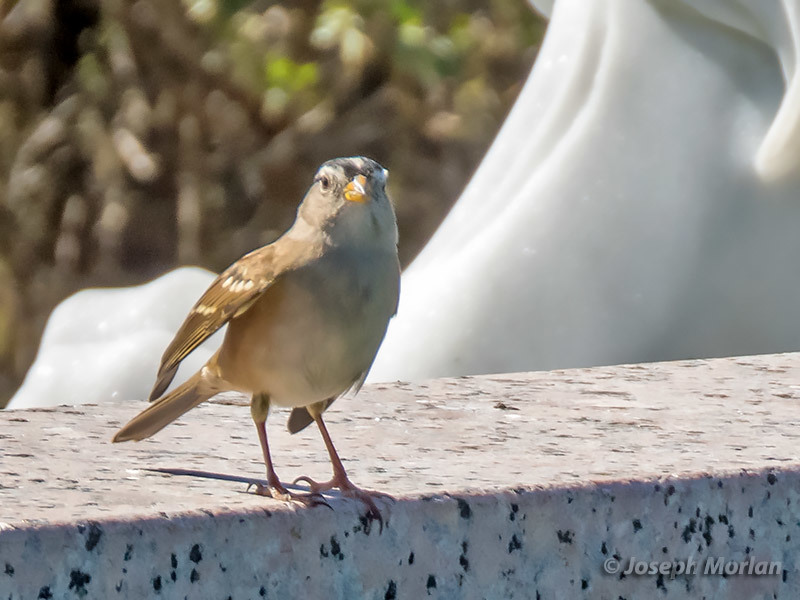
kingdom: Animalia
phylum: Chordata
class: Aves
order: Passeriformes
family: Passerellidae
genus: Zonotrichia
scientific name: Zonotrichia leucophrys
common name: White-crowned sparrow
